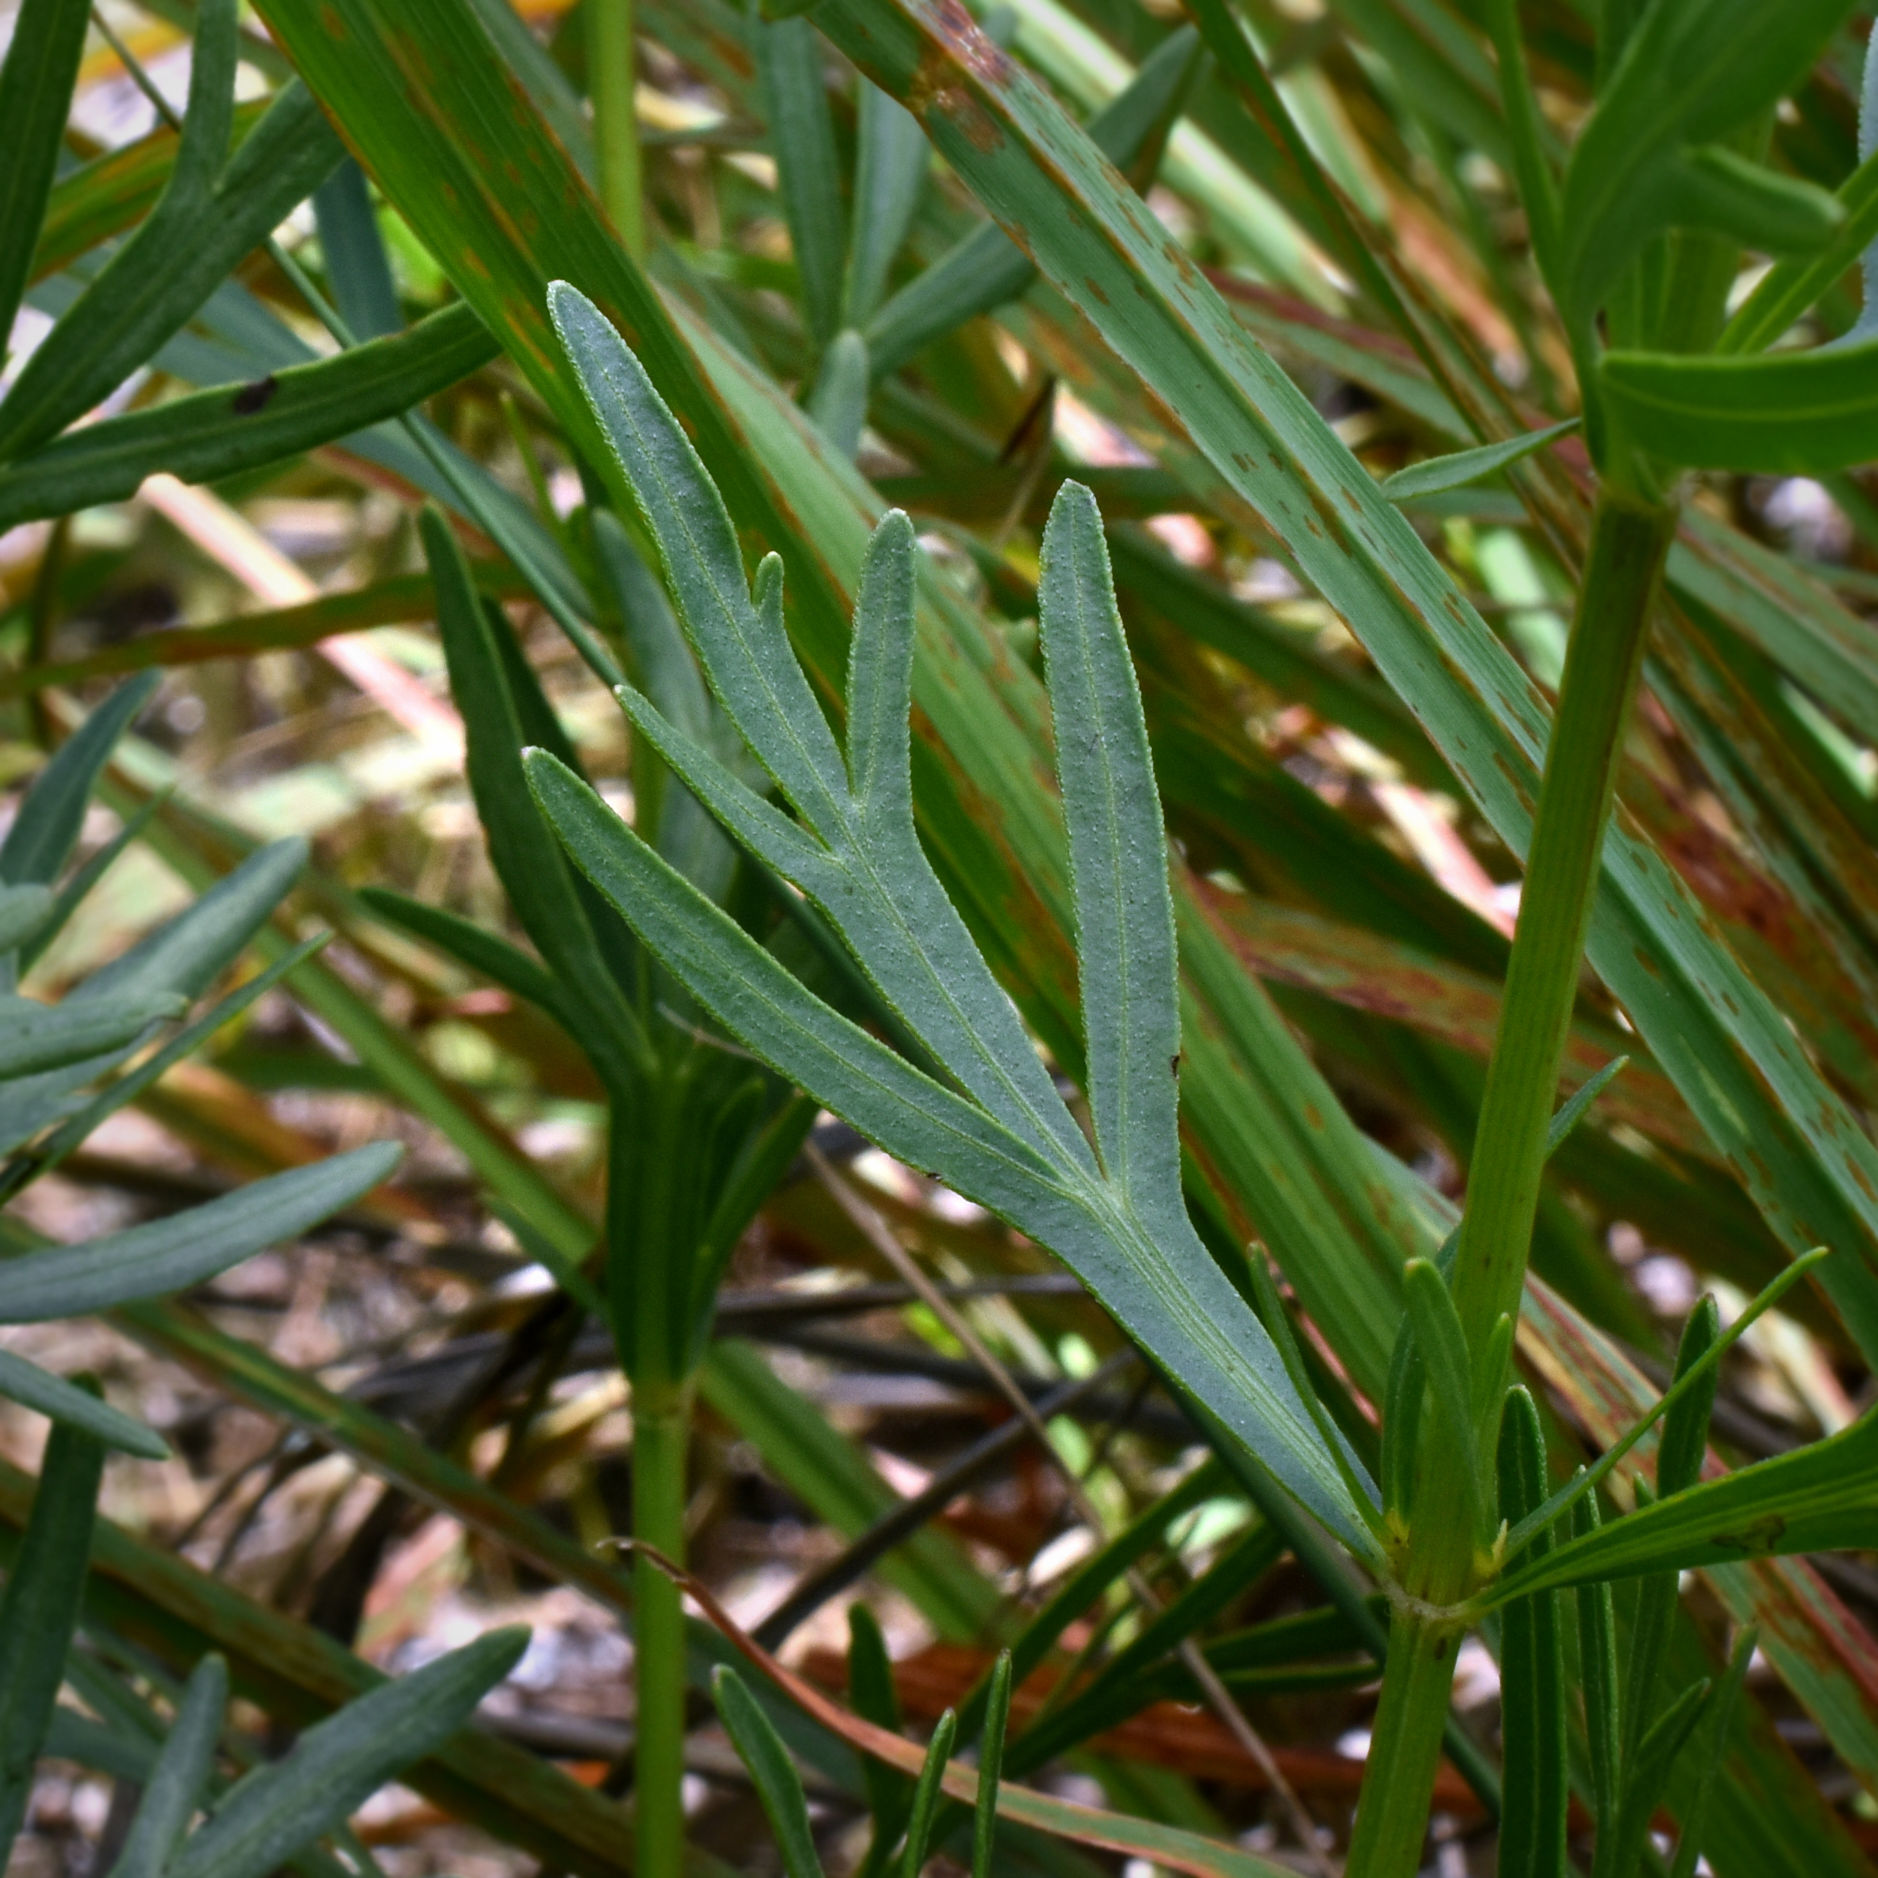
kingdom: Plantae
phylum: Tracheophyta
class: Magnoliopsida
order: Asterales
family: Asteraceae
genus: Coreopsis
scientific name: Coreopsis palmata
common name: Prairie coreopsis
